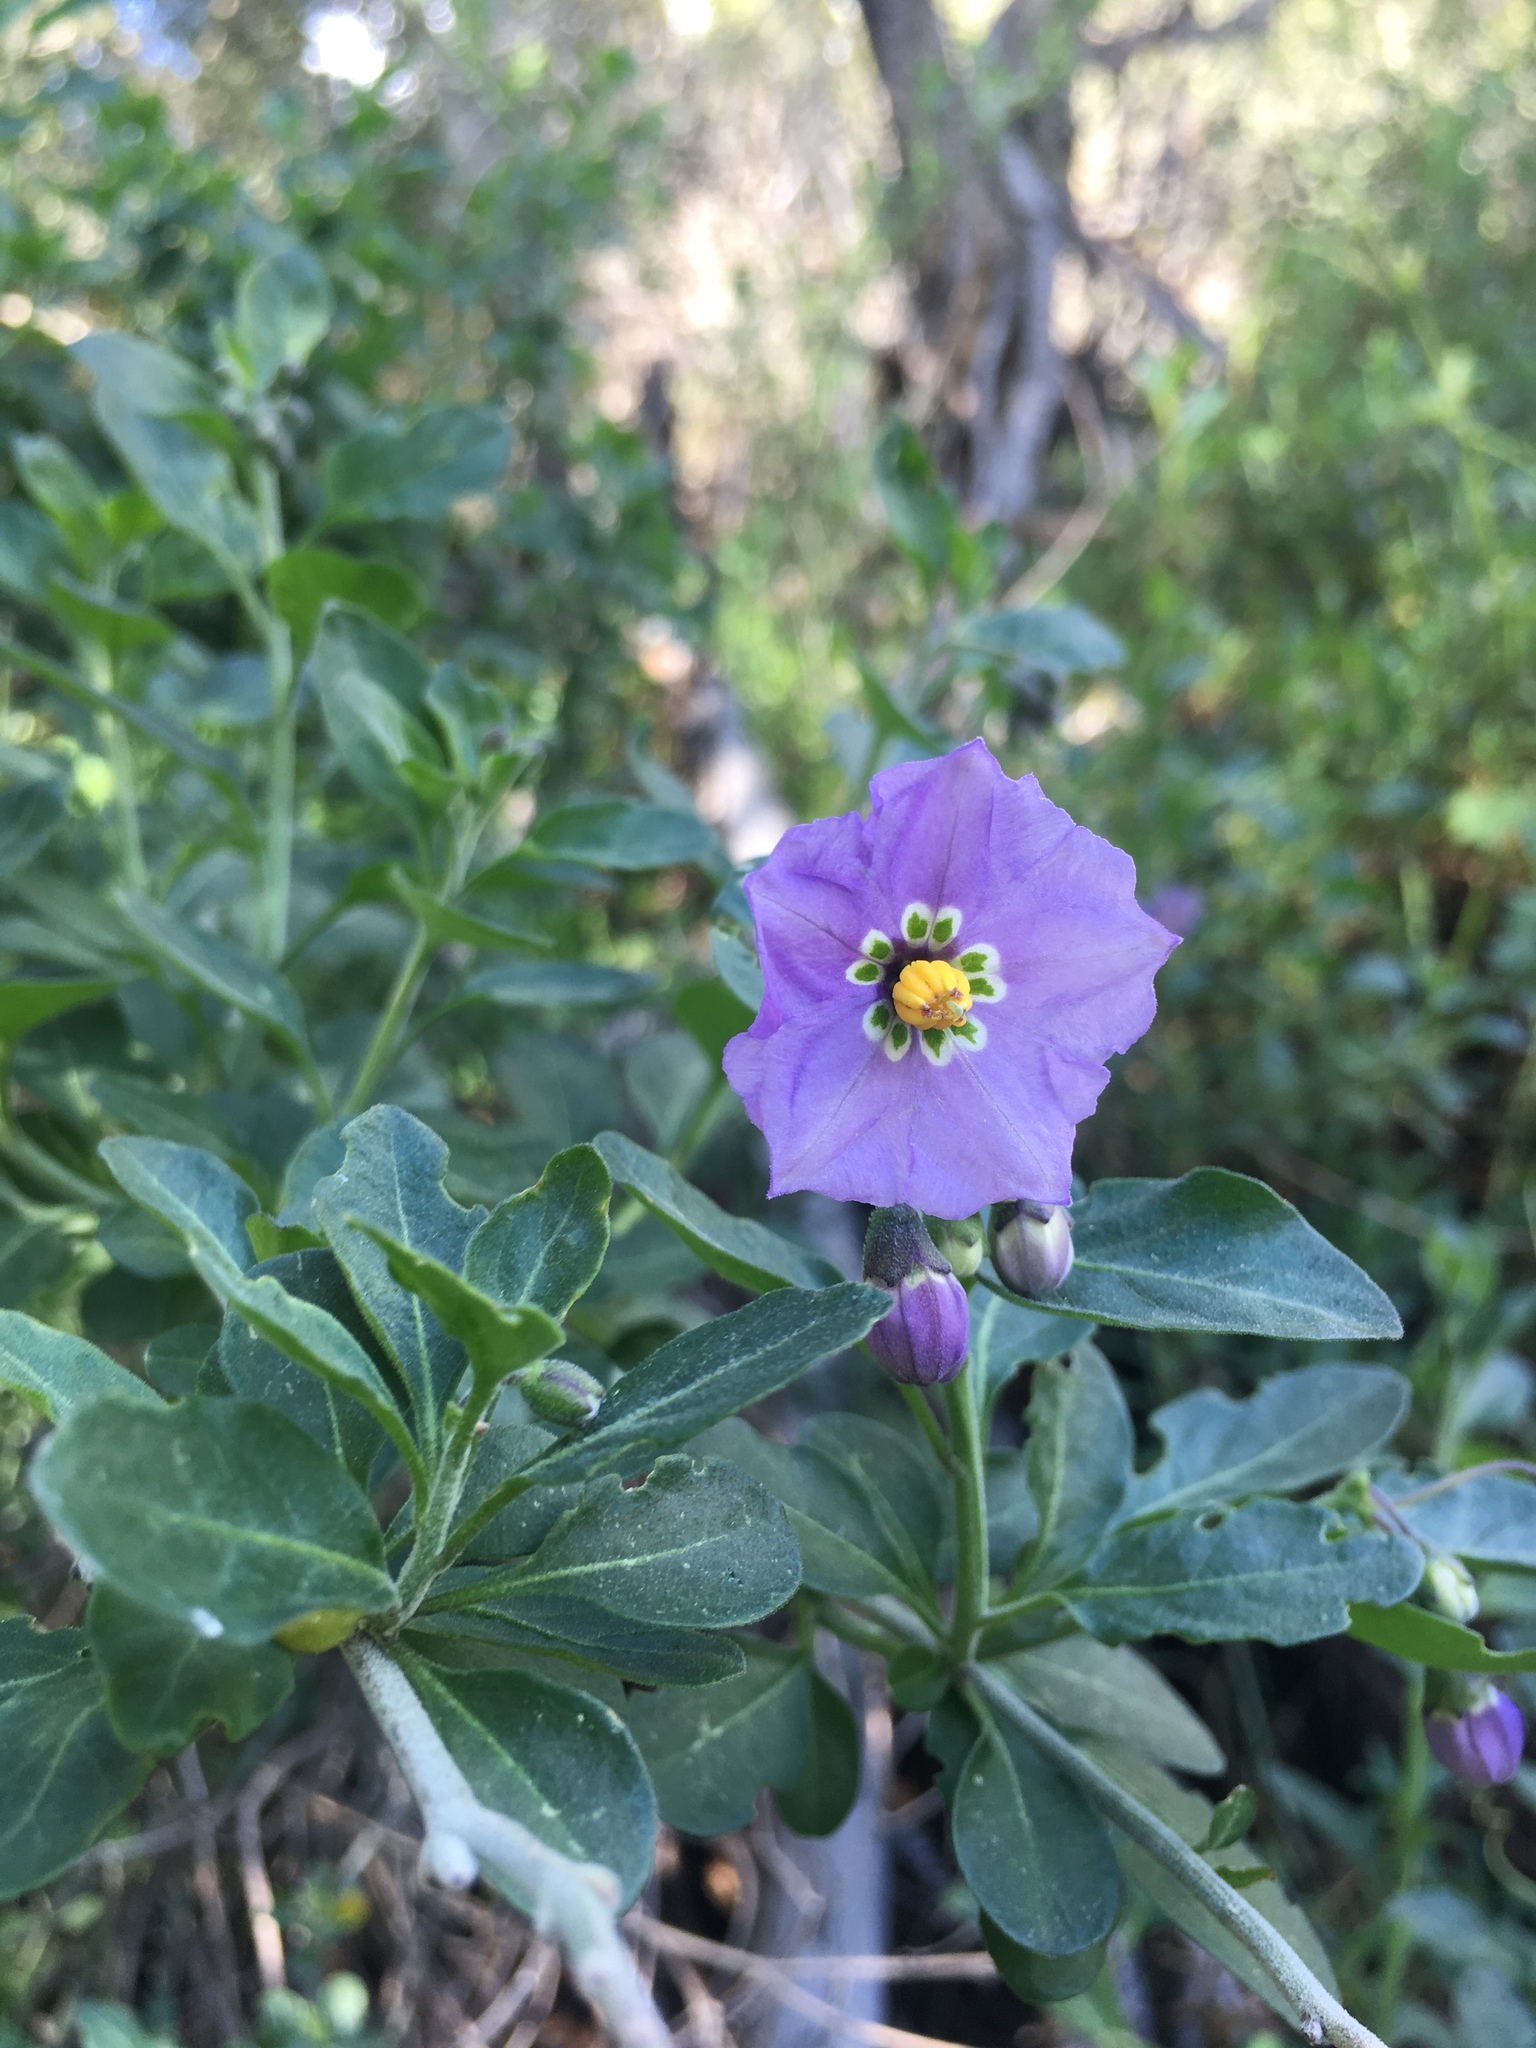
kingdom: Plantae
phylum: Tracheophyta
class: Magnoliopsida
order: Solanales
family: Solanaceae
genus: Solanum
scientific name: Solanum umbelliferum
